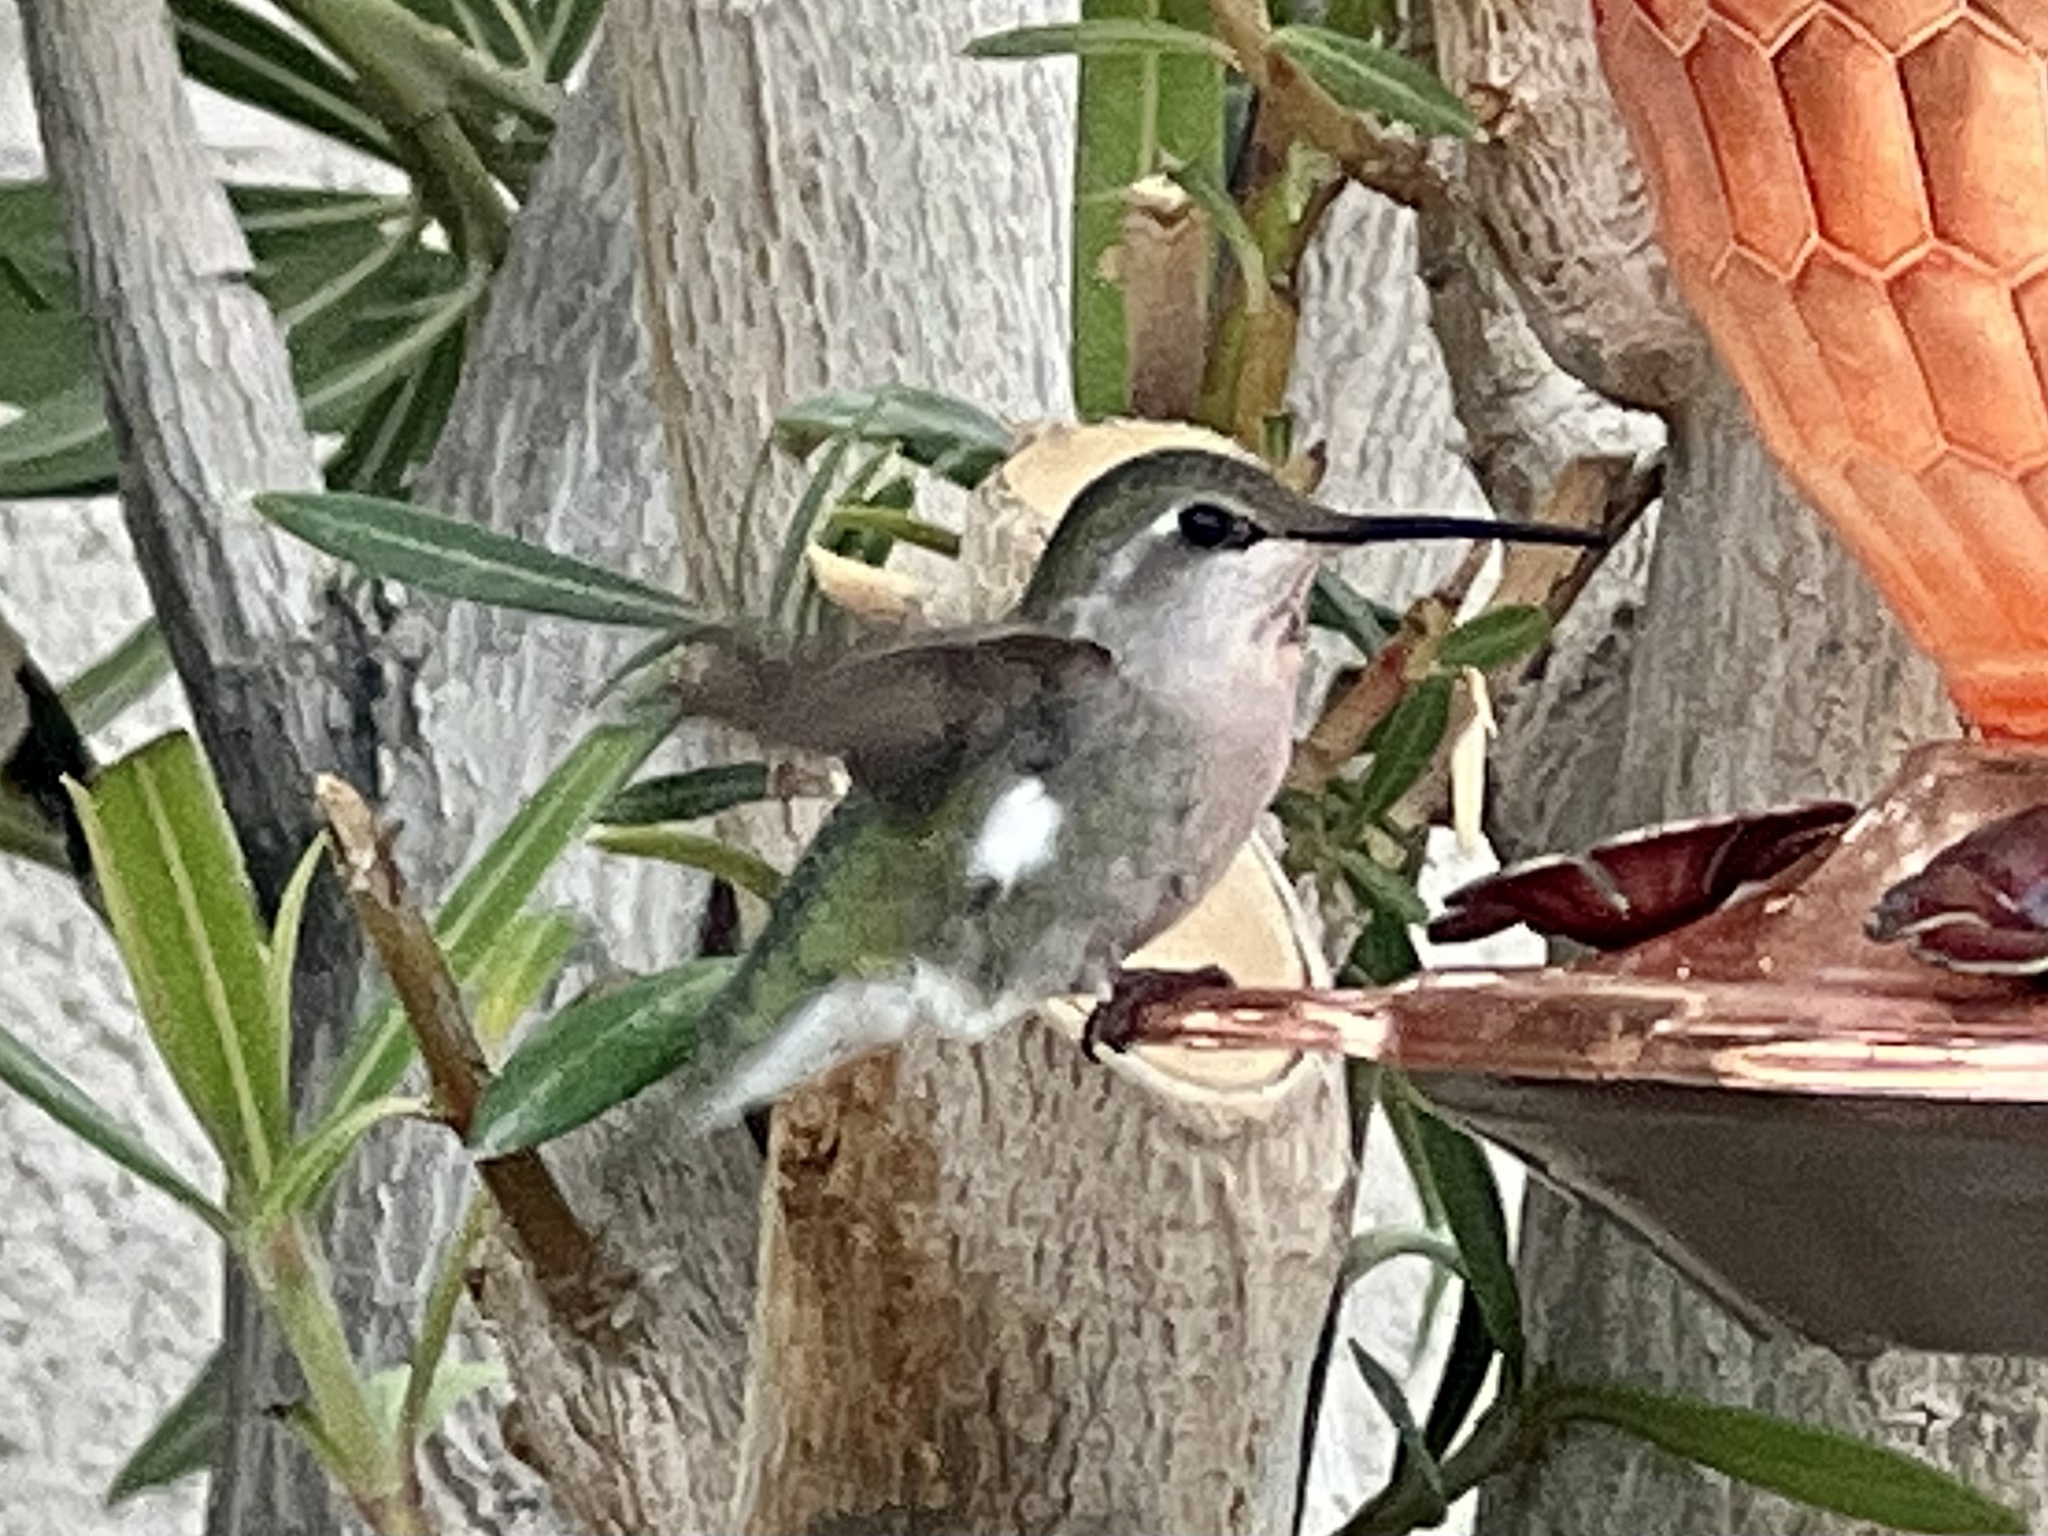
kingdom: Animalia
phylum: Chordata
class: Aves
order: Apodiformes
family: Trochilidae
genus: Calypte
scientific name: Calypte costae
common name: Costa's hummingbird
